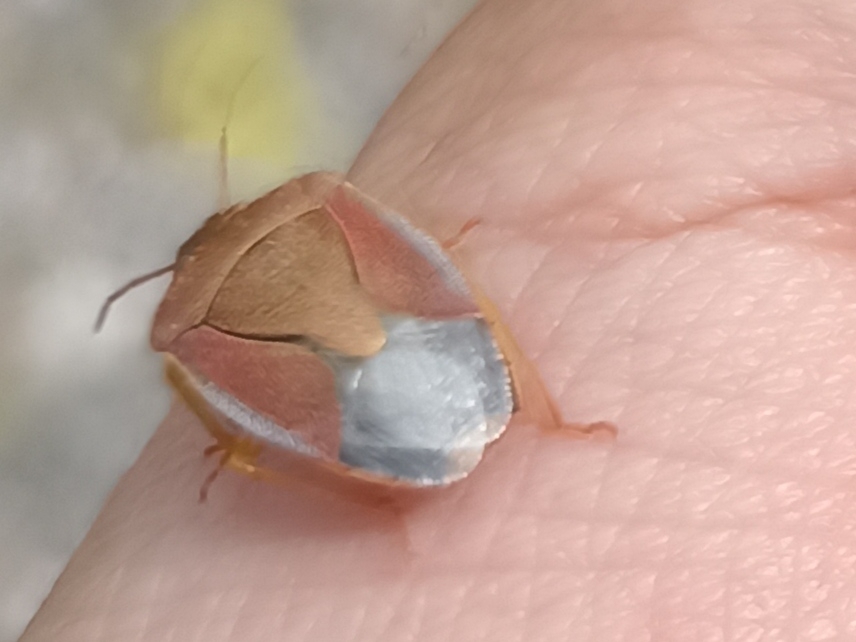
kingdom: Animalia
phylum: Arthropoda
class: Insecta
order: Hemiptera
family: Pentatomidae
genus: Piezodorus
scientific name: Piezodorus lituratus
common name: Stink bug
